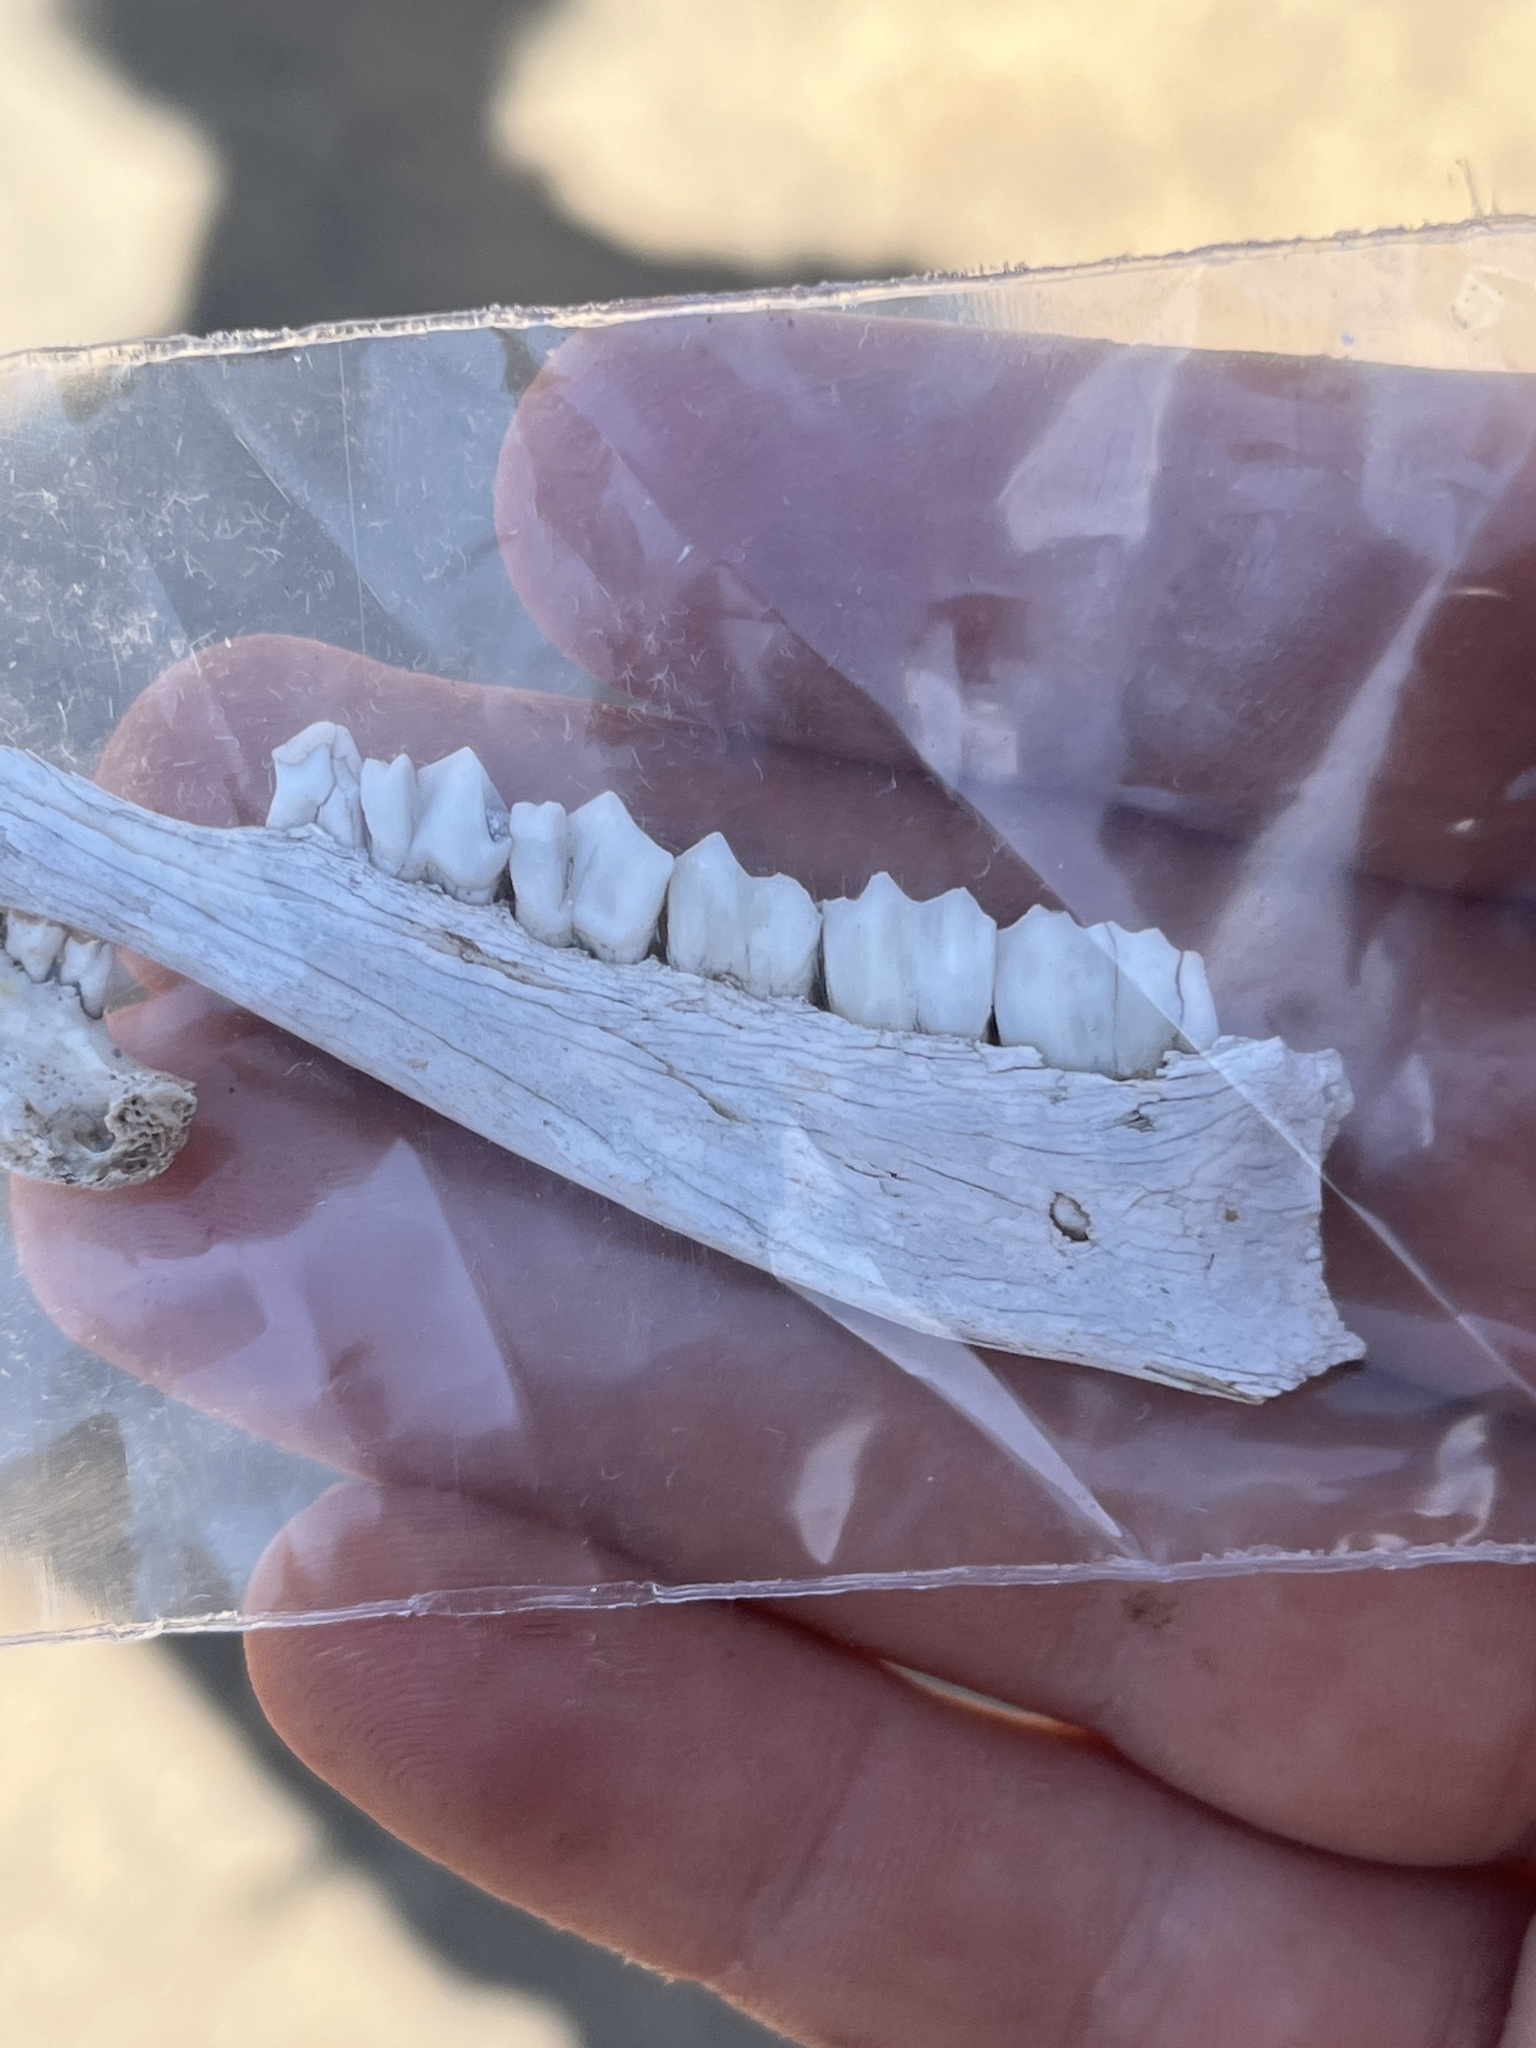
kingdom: Animalia
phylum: Chordata
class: Mammalia
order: Artiodactyla
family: Bovidae
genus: Madoqua
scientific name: Madoqua
